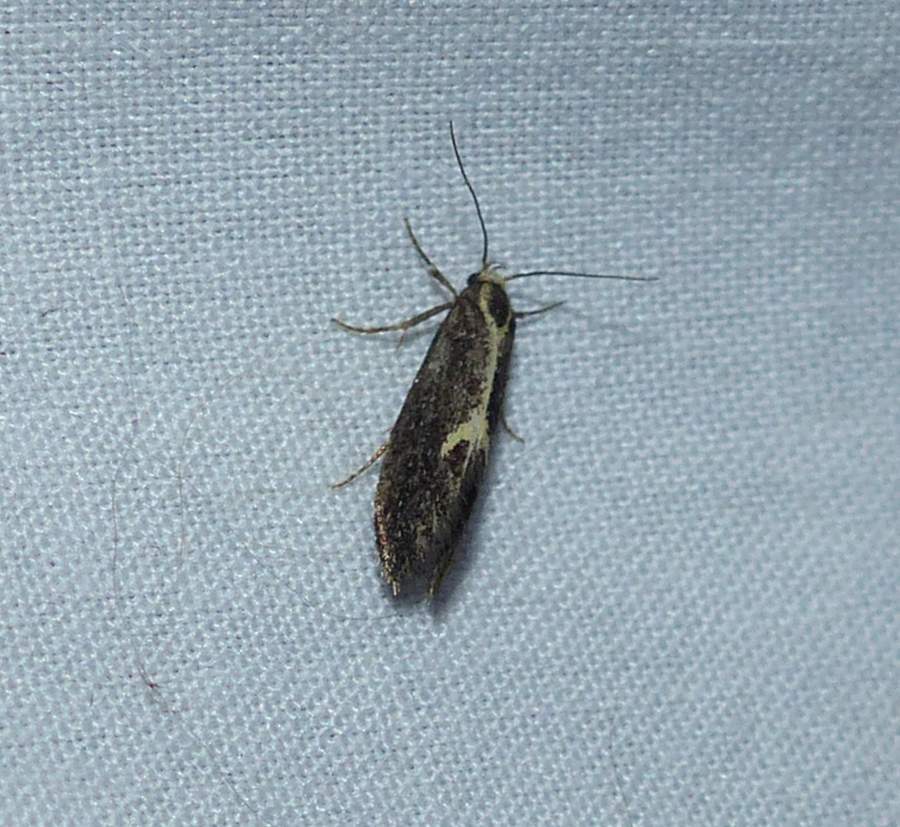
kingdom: Animalia
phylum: Arthropoda
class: Insecta
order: Lepidoptera
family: Oecophoridae
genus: Polix
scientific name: Polix coloradella
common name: Skunk moth
